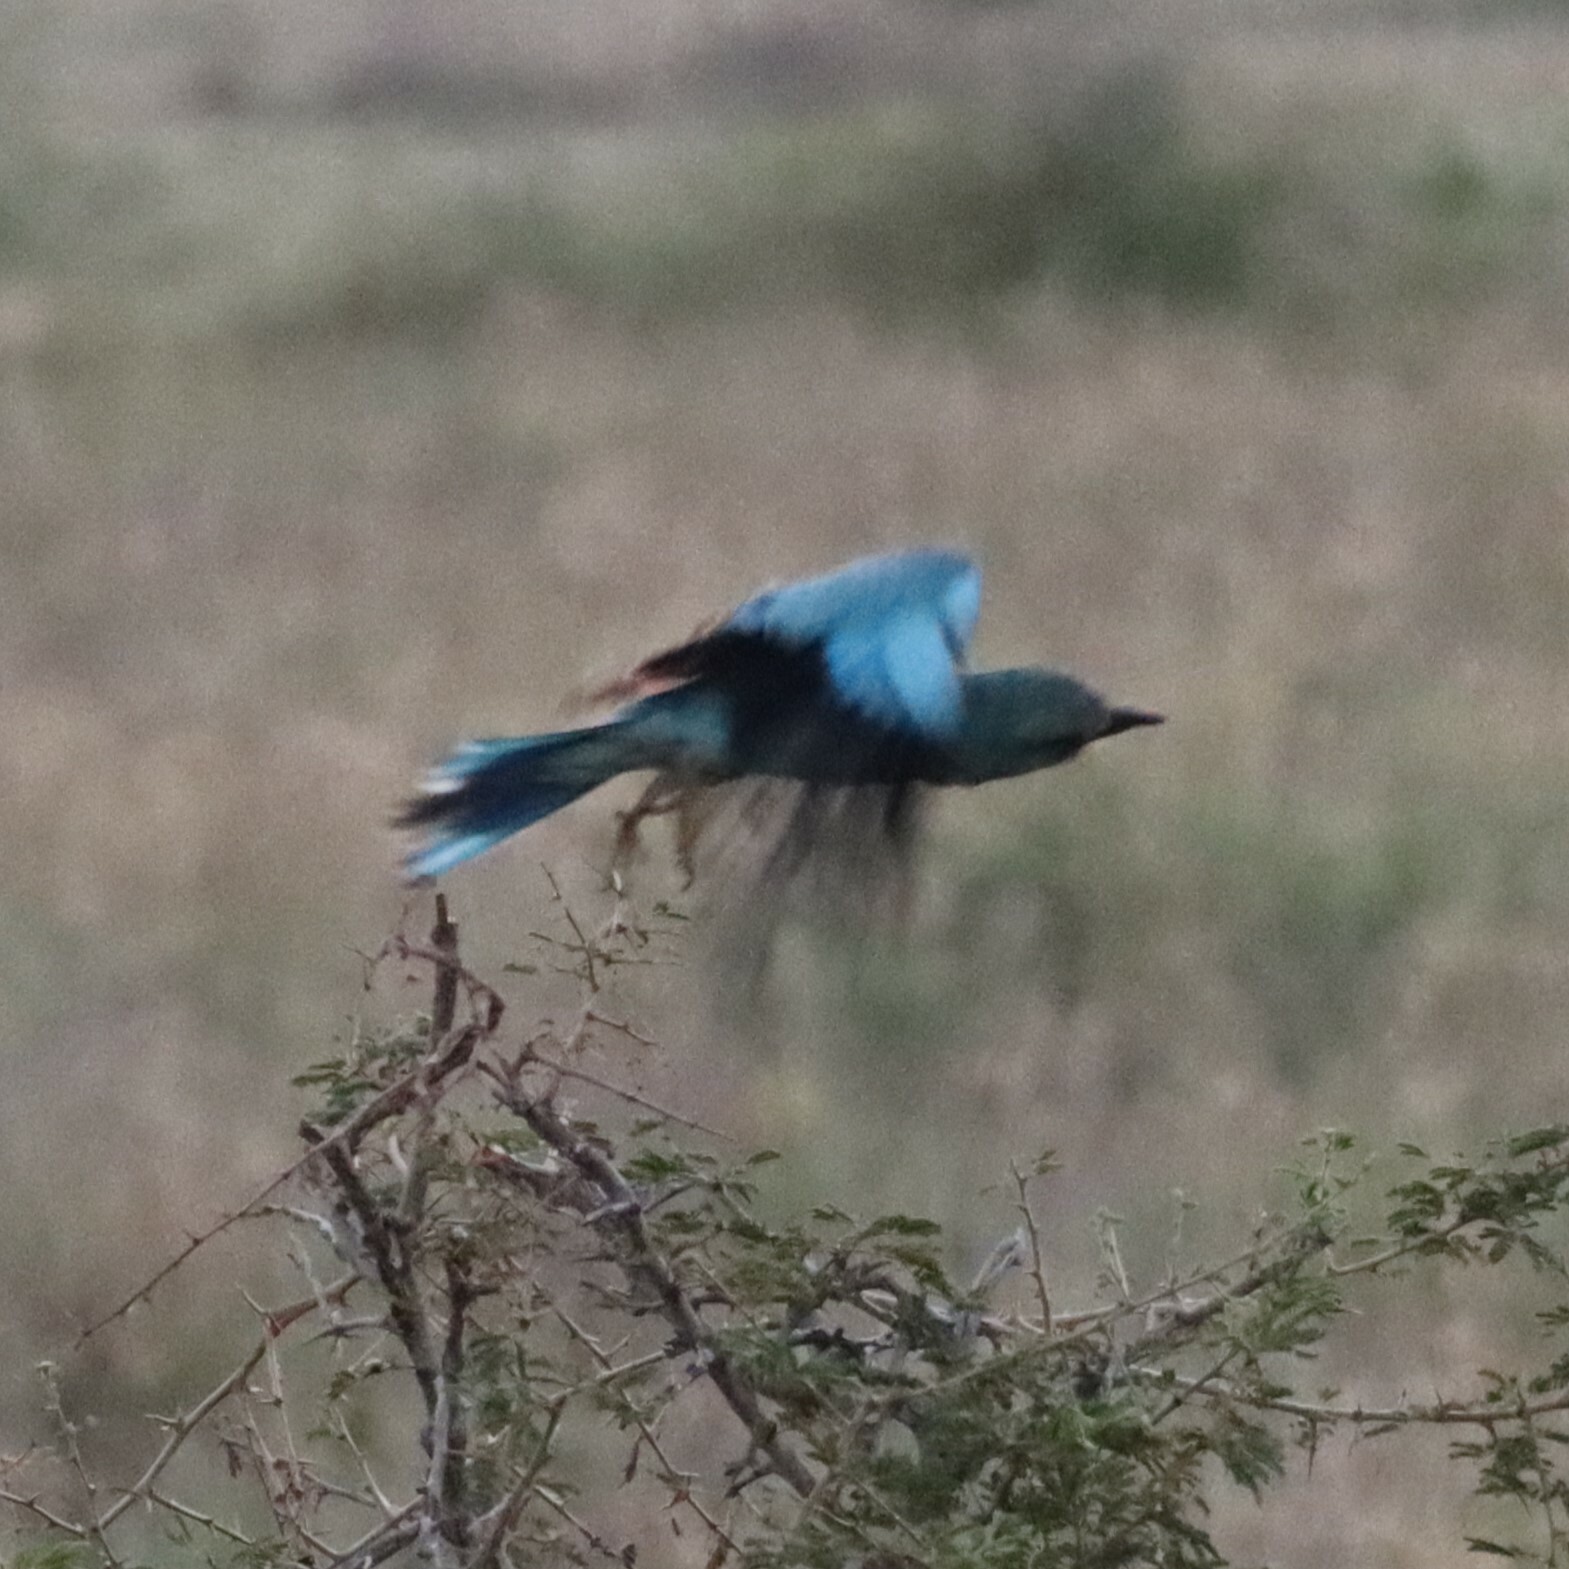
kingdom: Animalia
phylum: Chordata
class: Aves
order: Coraciiformes
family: Coraciidae
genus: Coracias
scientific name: Coracias garrulus
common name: European roller
